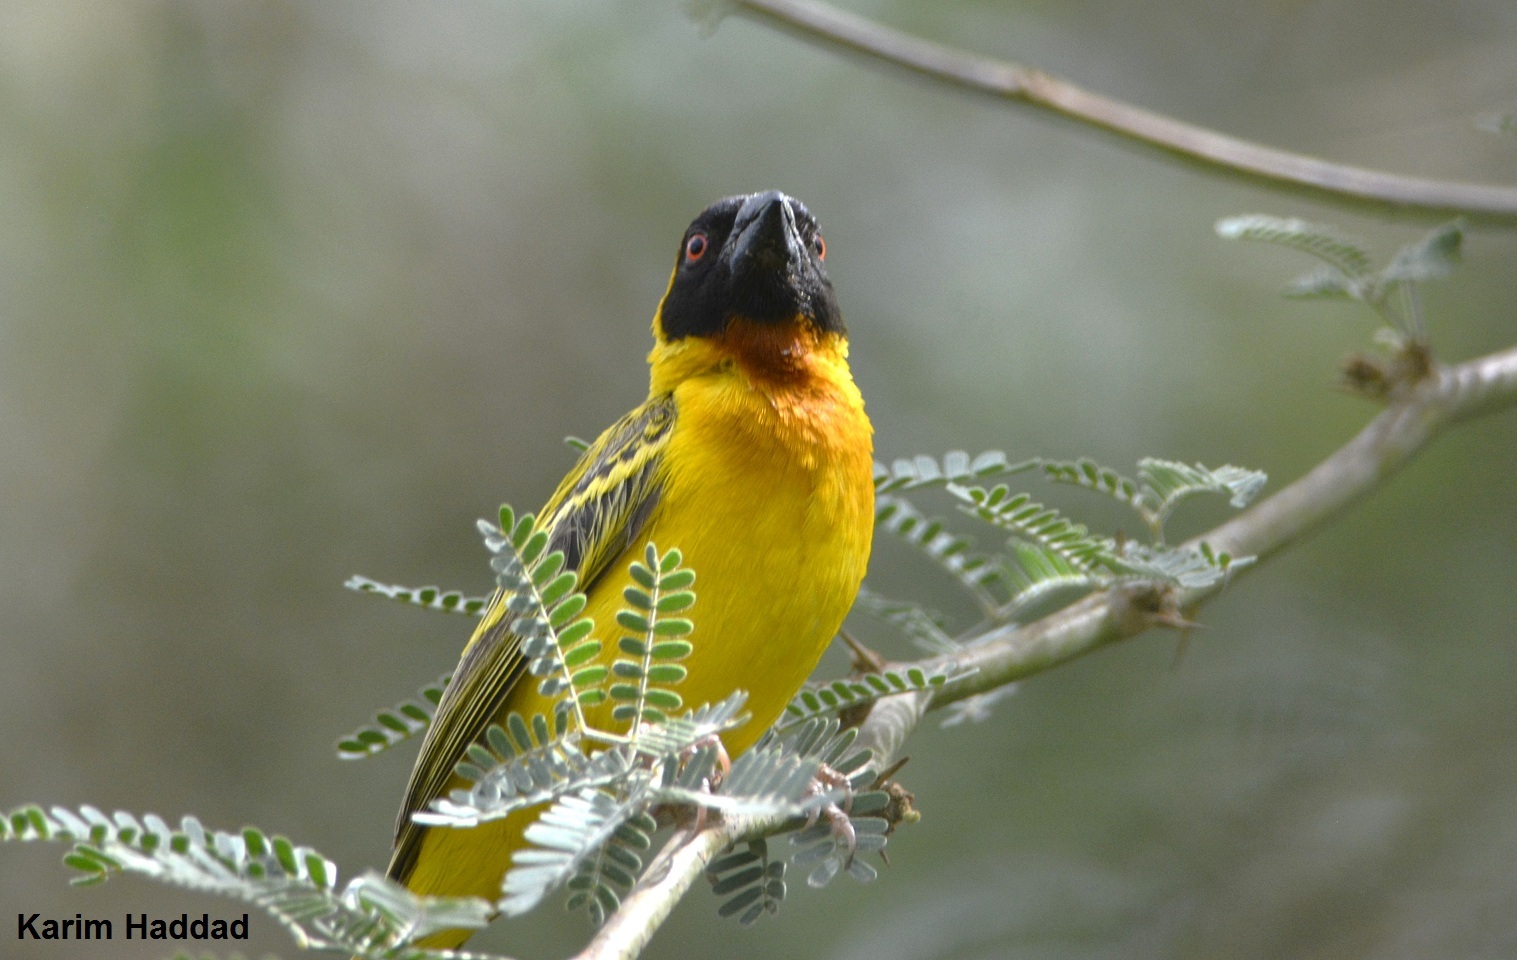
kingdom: Animalia
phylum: Chordata
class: Aves
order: Passeriformes
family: Ploceidae
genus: Ploceus
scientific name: Ploceus vitellinus
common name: Vitelline masked weaver
